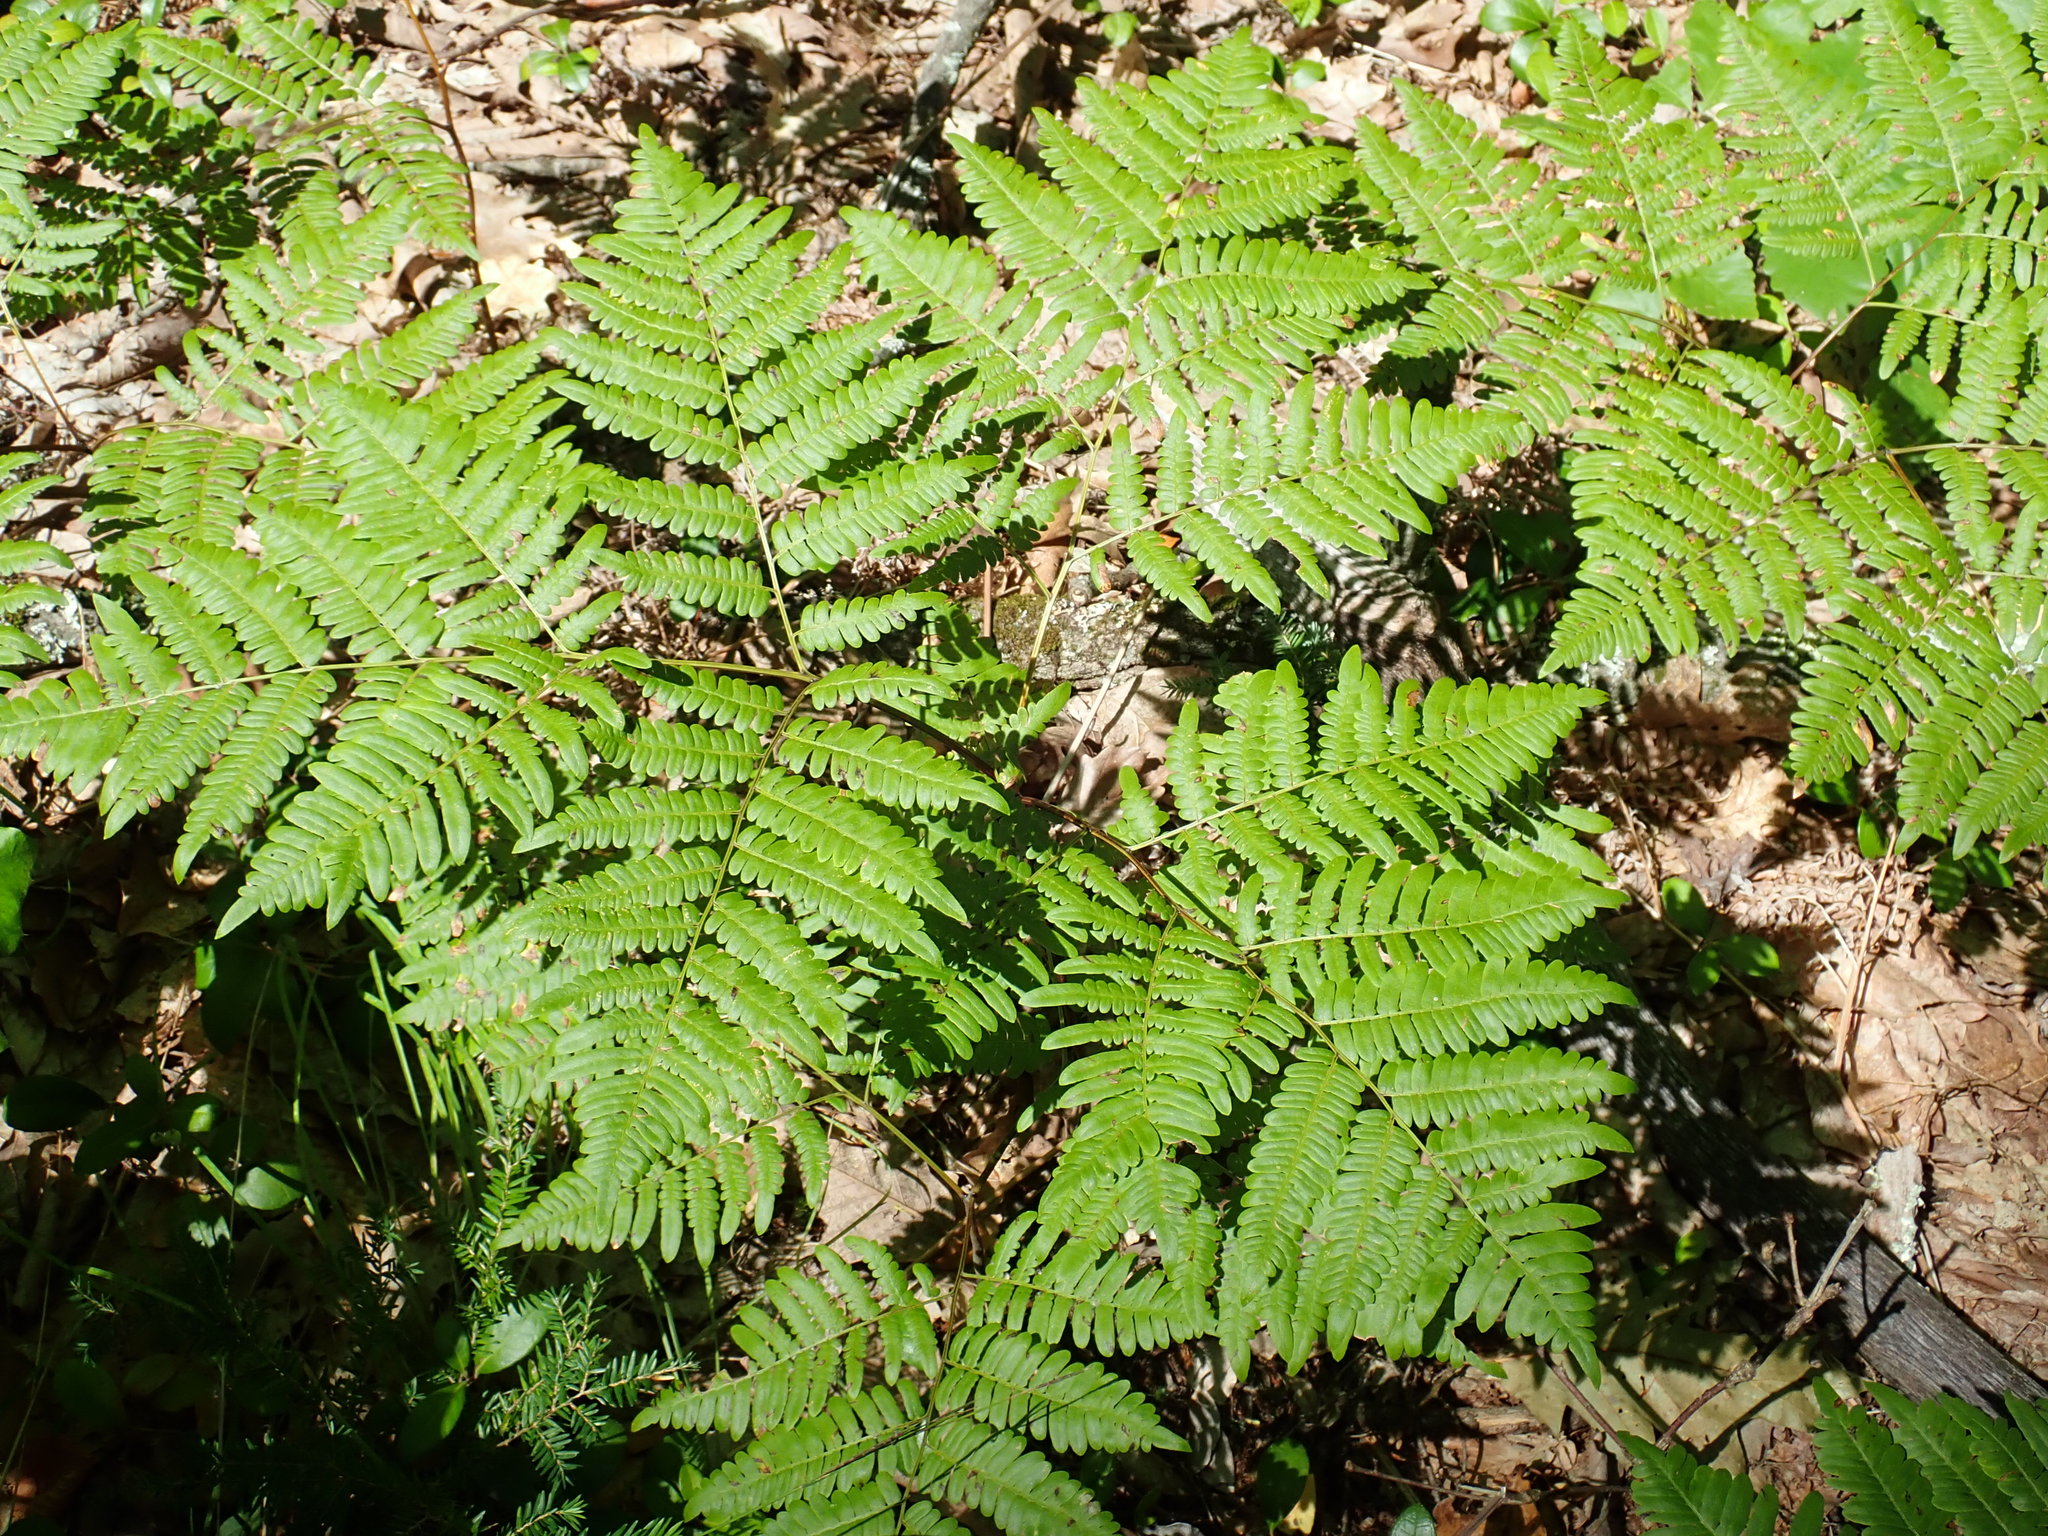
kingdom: Plantae
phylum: Tracheophyta
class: Polypodiopsida
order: Polypodiales
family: Dennstaedtiaceae
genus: Pteridium
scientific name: Pteridium aquilinum
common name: Bracken
